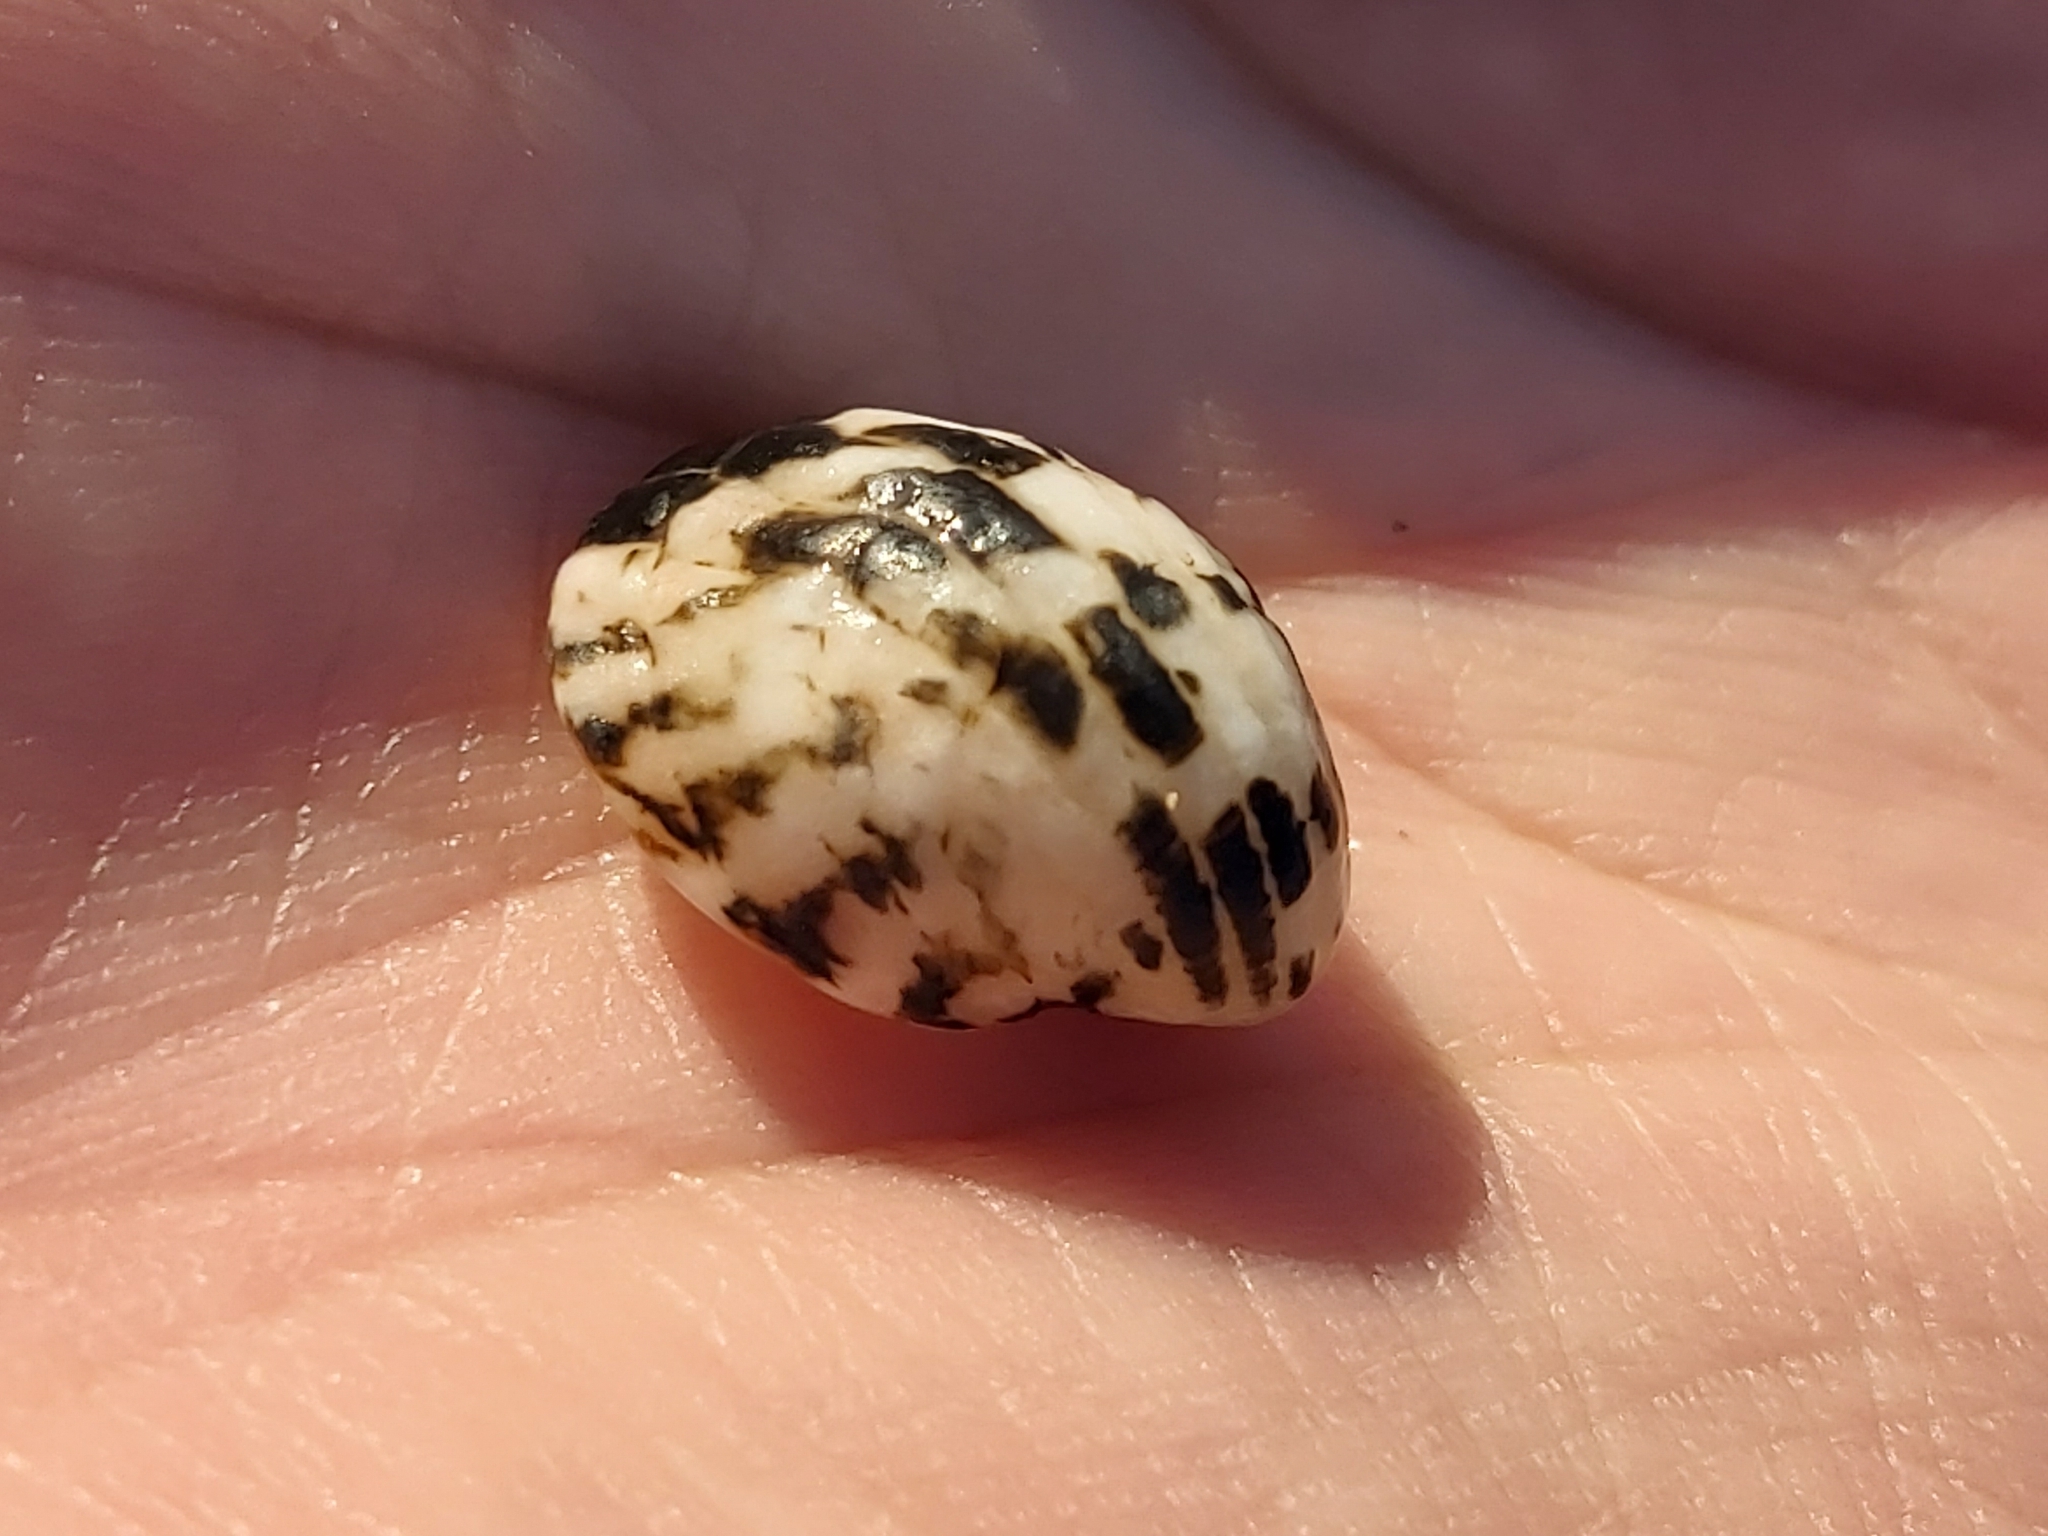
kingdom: Animalia
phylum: Mollusca
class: Gastropoda
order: Cycloneritida
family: Neritidae
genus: Nerita
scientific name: Nerita albicilla
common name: Blotched nerite
